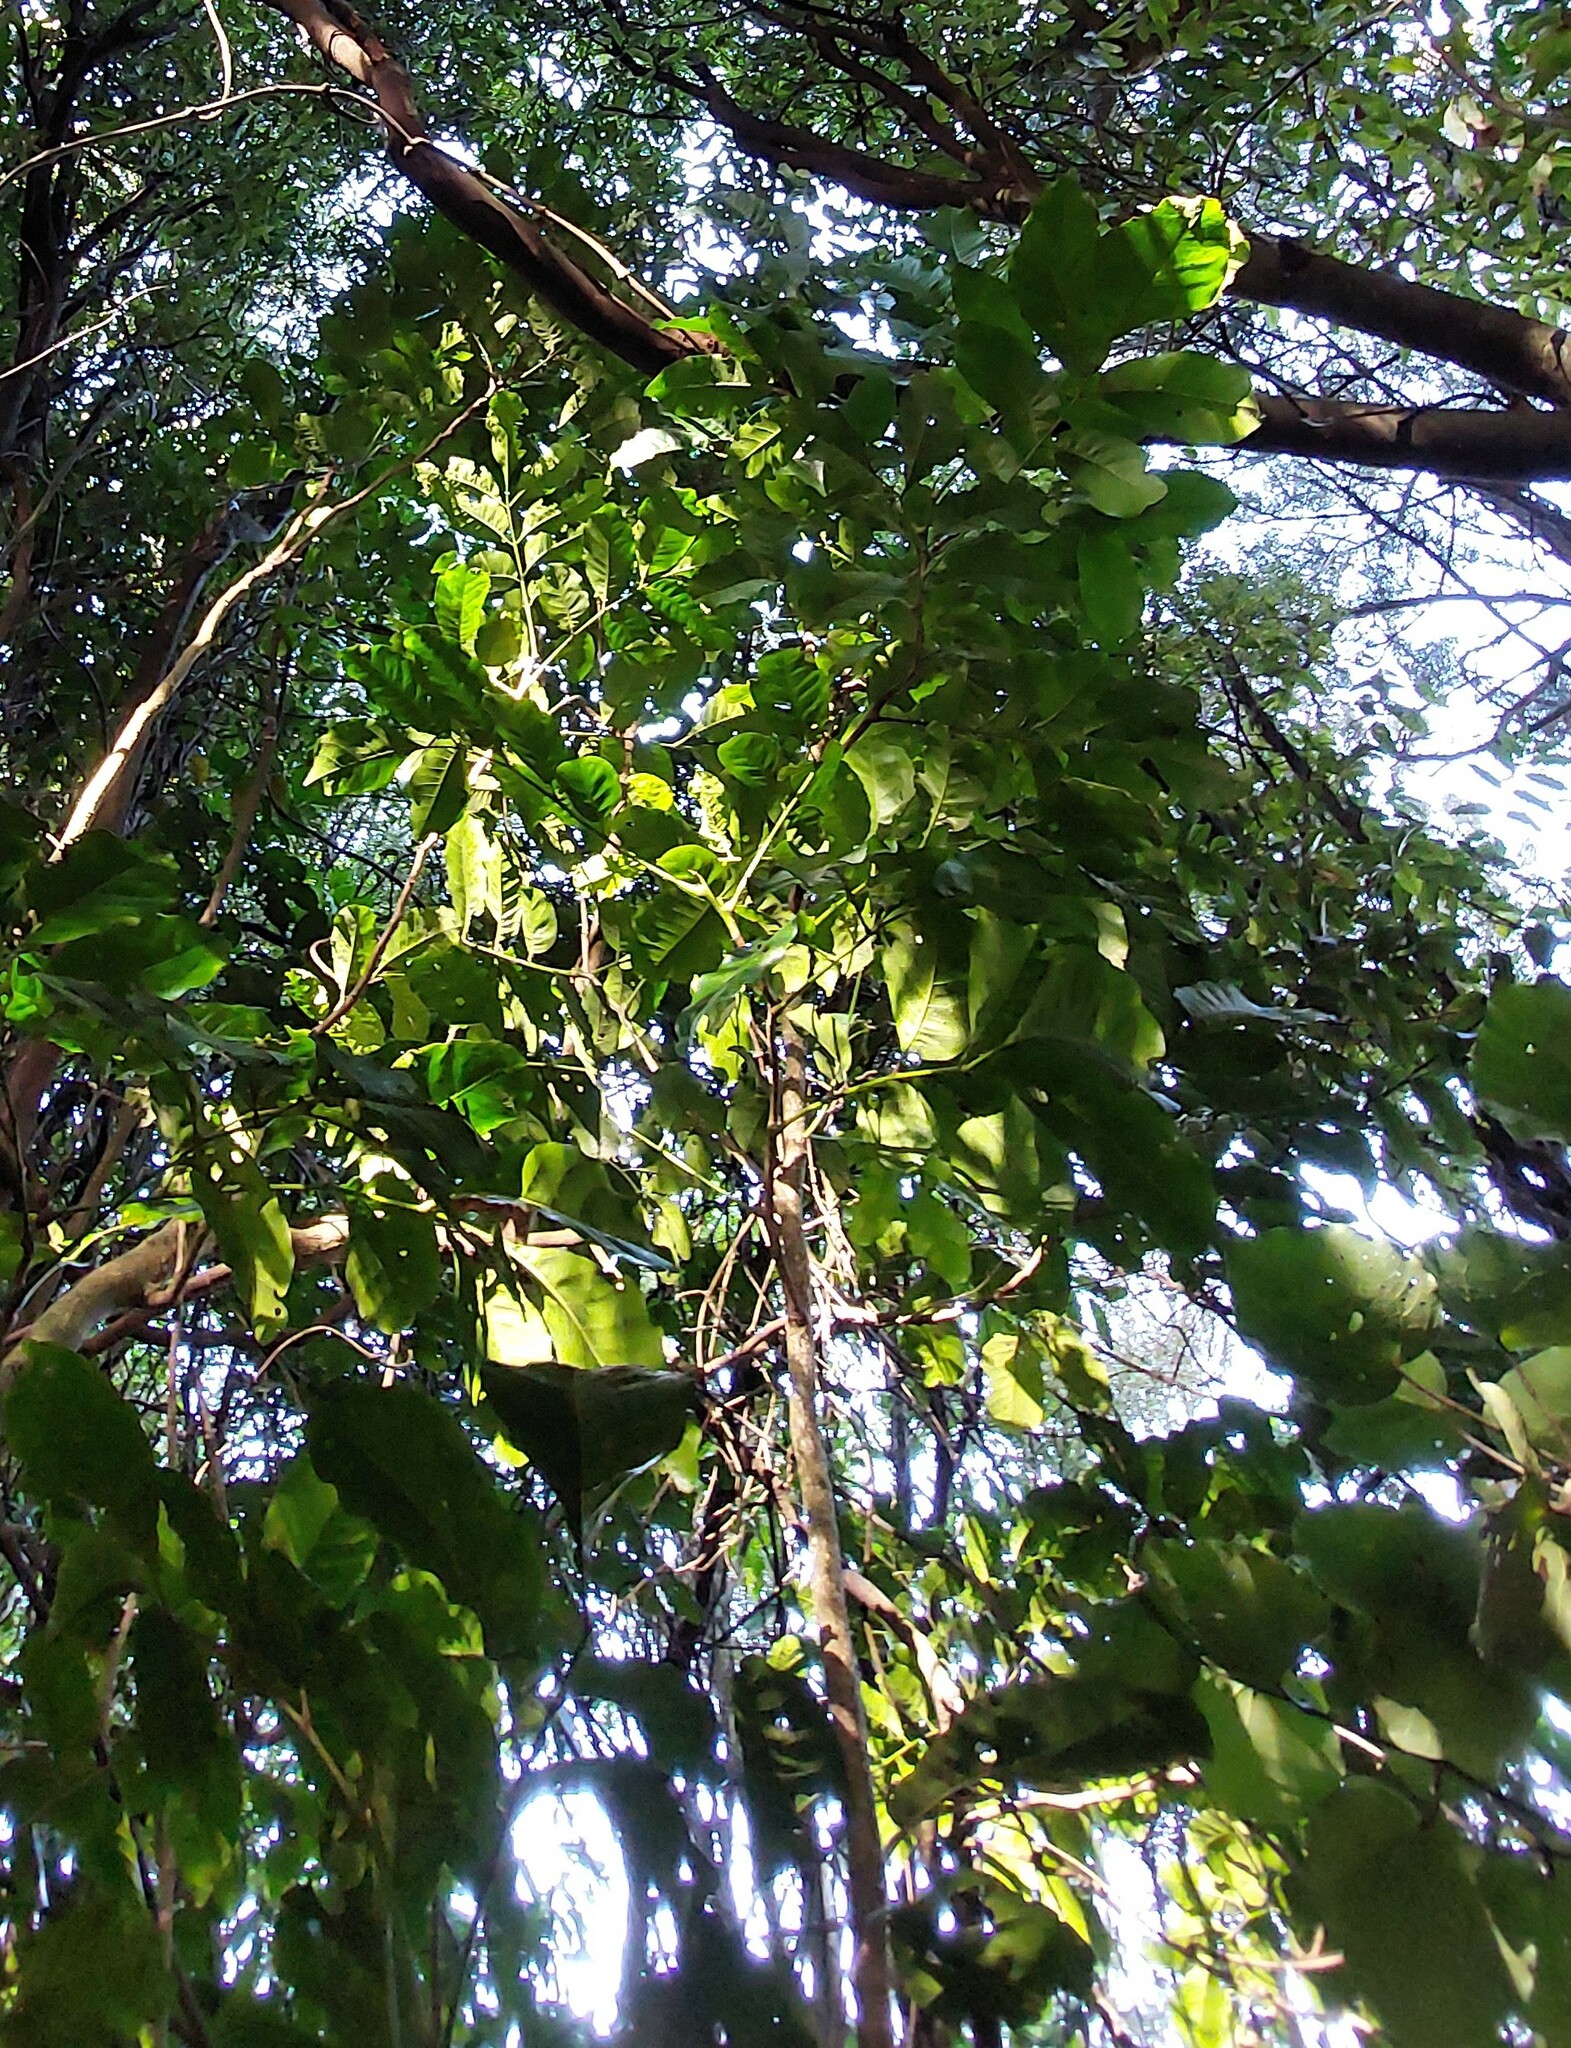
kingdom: Plantae
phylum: Tracheophyta
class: Magnoliopsida
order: Sapindales
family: Meliaceae
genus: Didymocheton
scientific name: Didymocheton spectabilis
